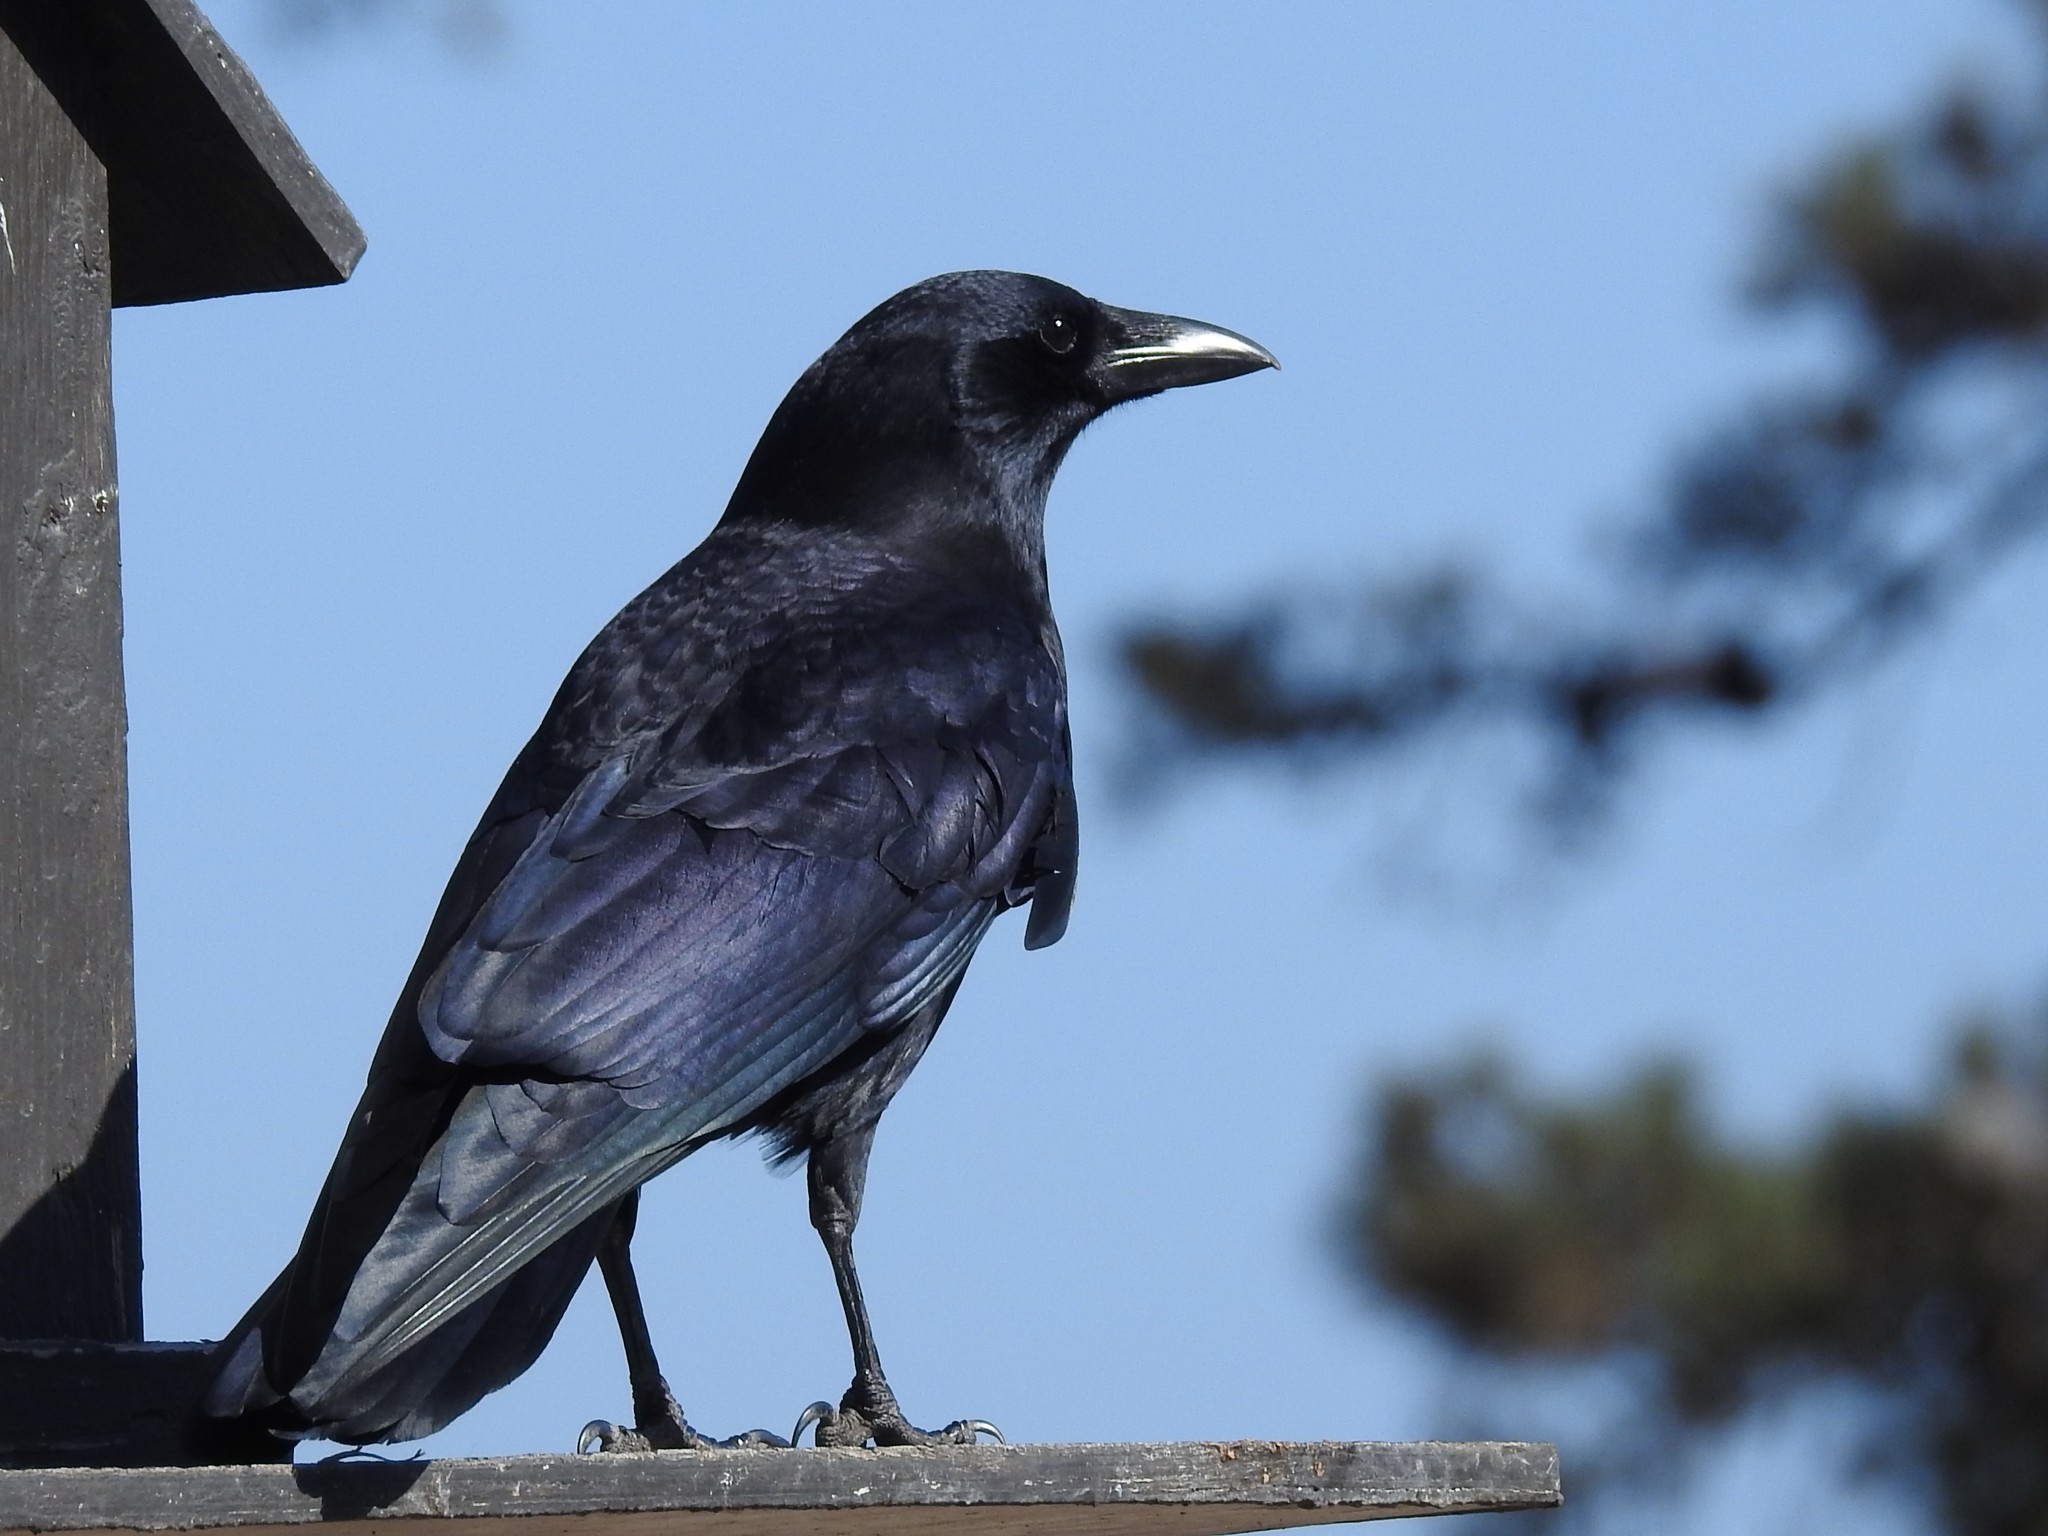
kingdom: Animalia
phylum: Chordata
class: Aves
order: Passeriformes
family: Corvidae
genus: Corvus
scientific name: Corvus brachyrhynchos
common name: American crow
